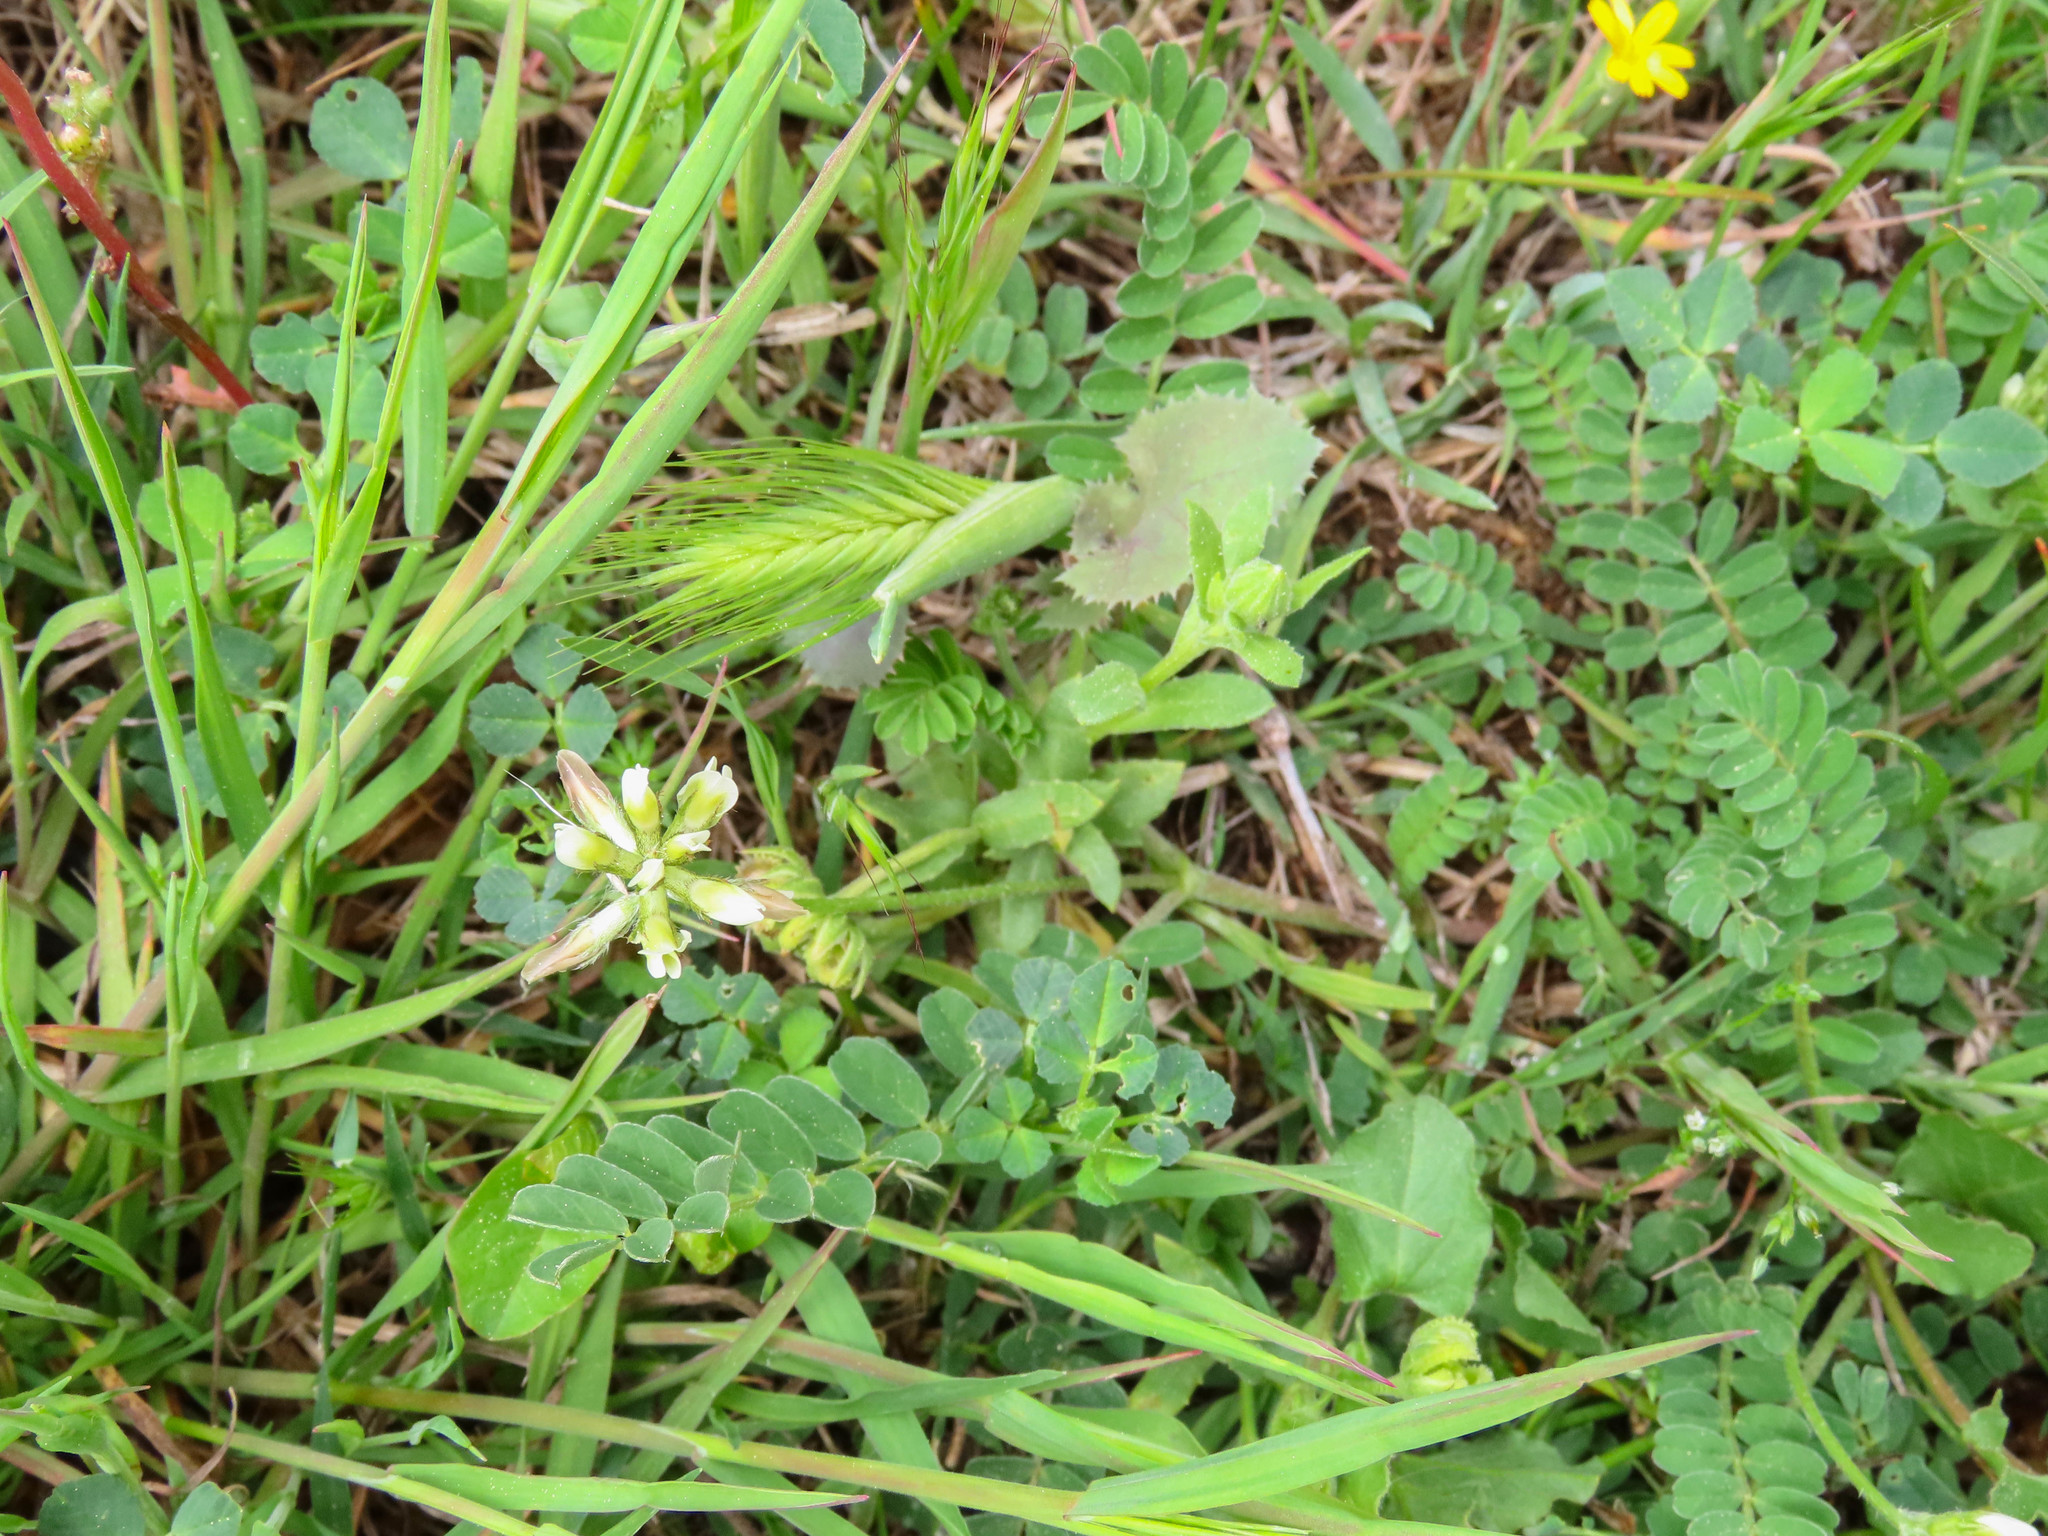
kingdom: Plantae
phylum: Tracheophyta
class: Magnoliopsida
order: Fabales
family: Fabaceae
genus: Astragalus
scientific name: Astragalus hamosus
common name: European milkvetch
